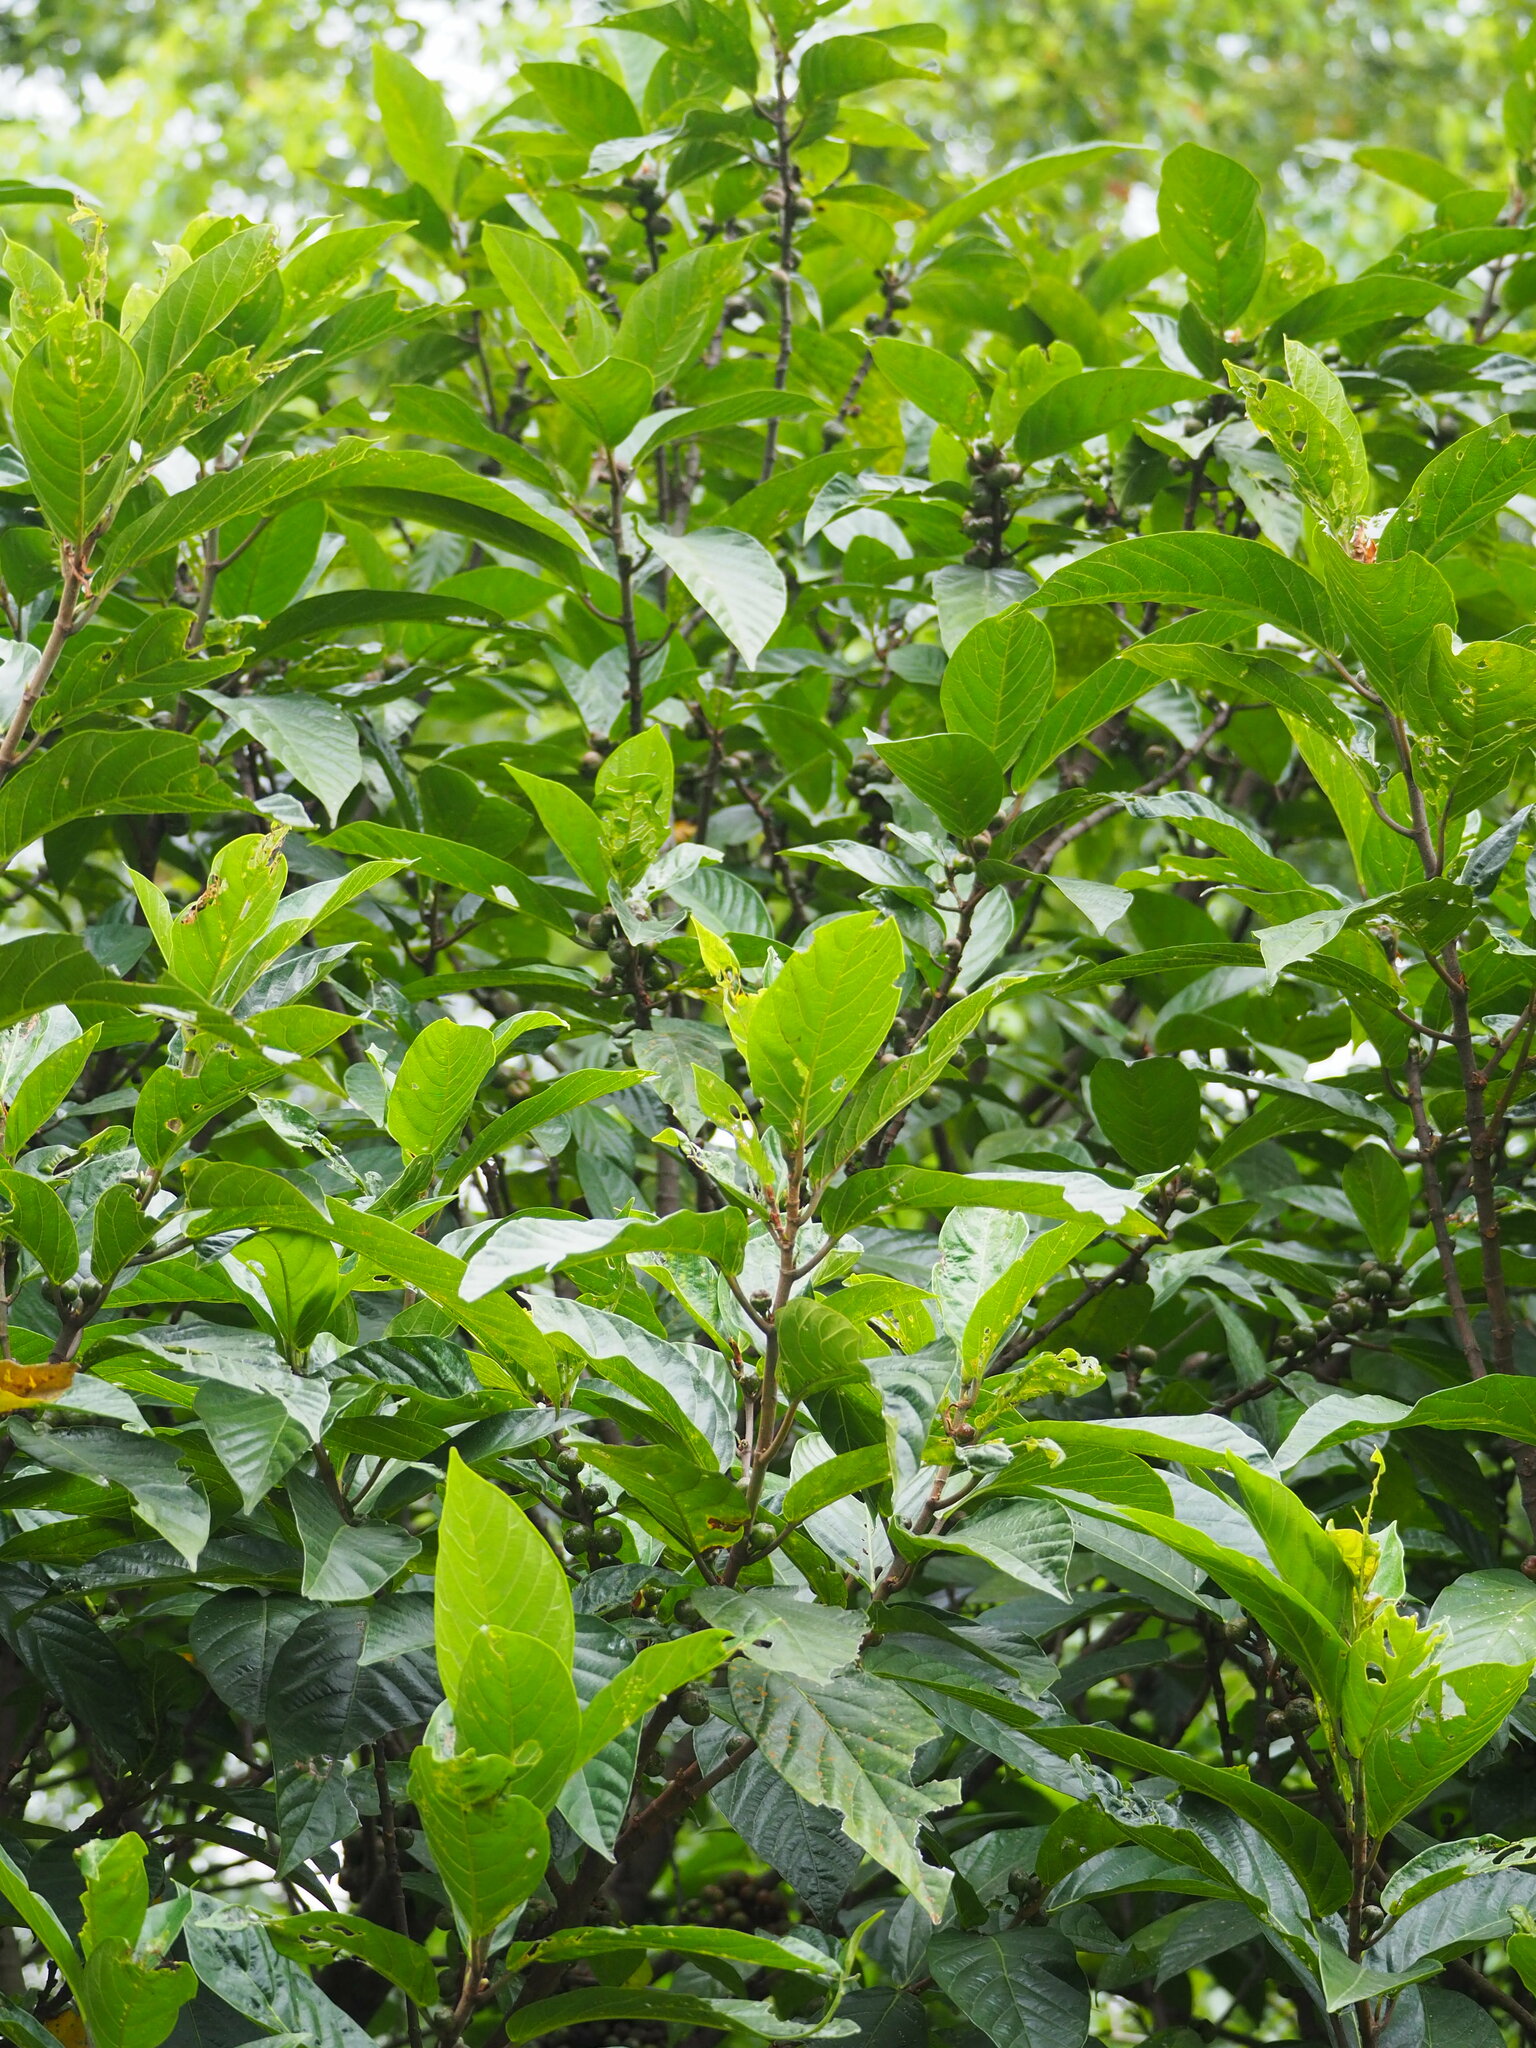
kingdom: Plantae
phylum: Tracheophyta
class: Magnoliopsida
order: Rosales
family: Moraceae
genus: Ficus
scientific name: Ficus benguetensis
